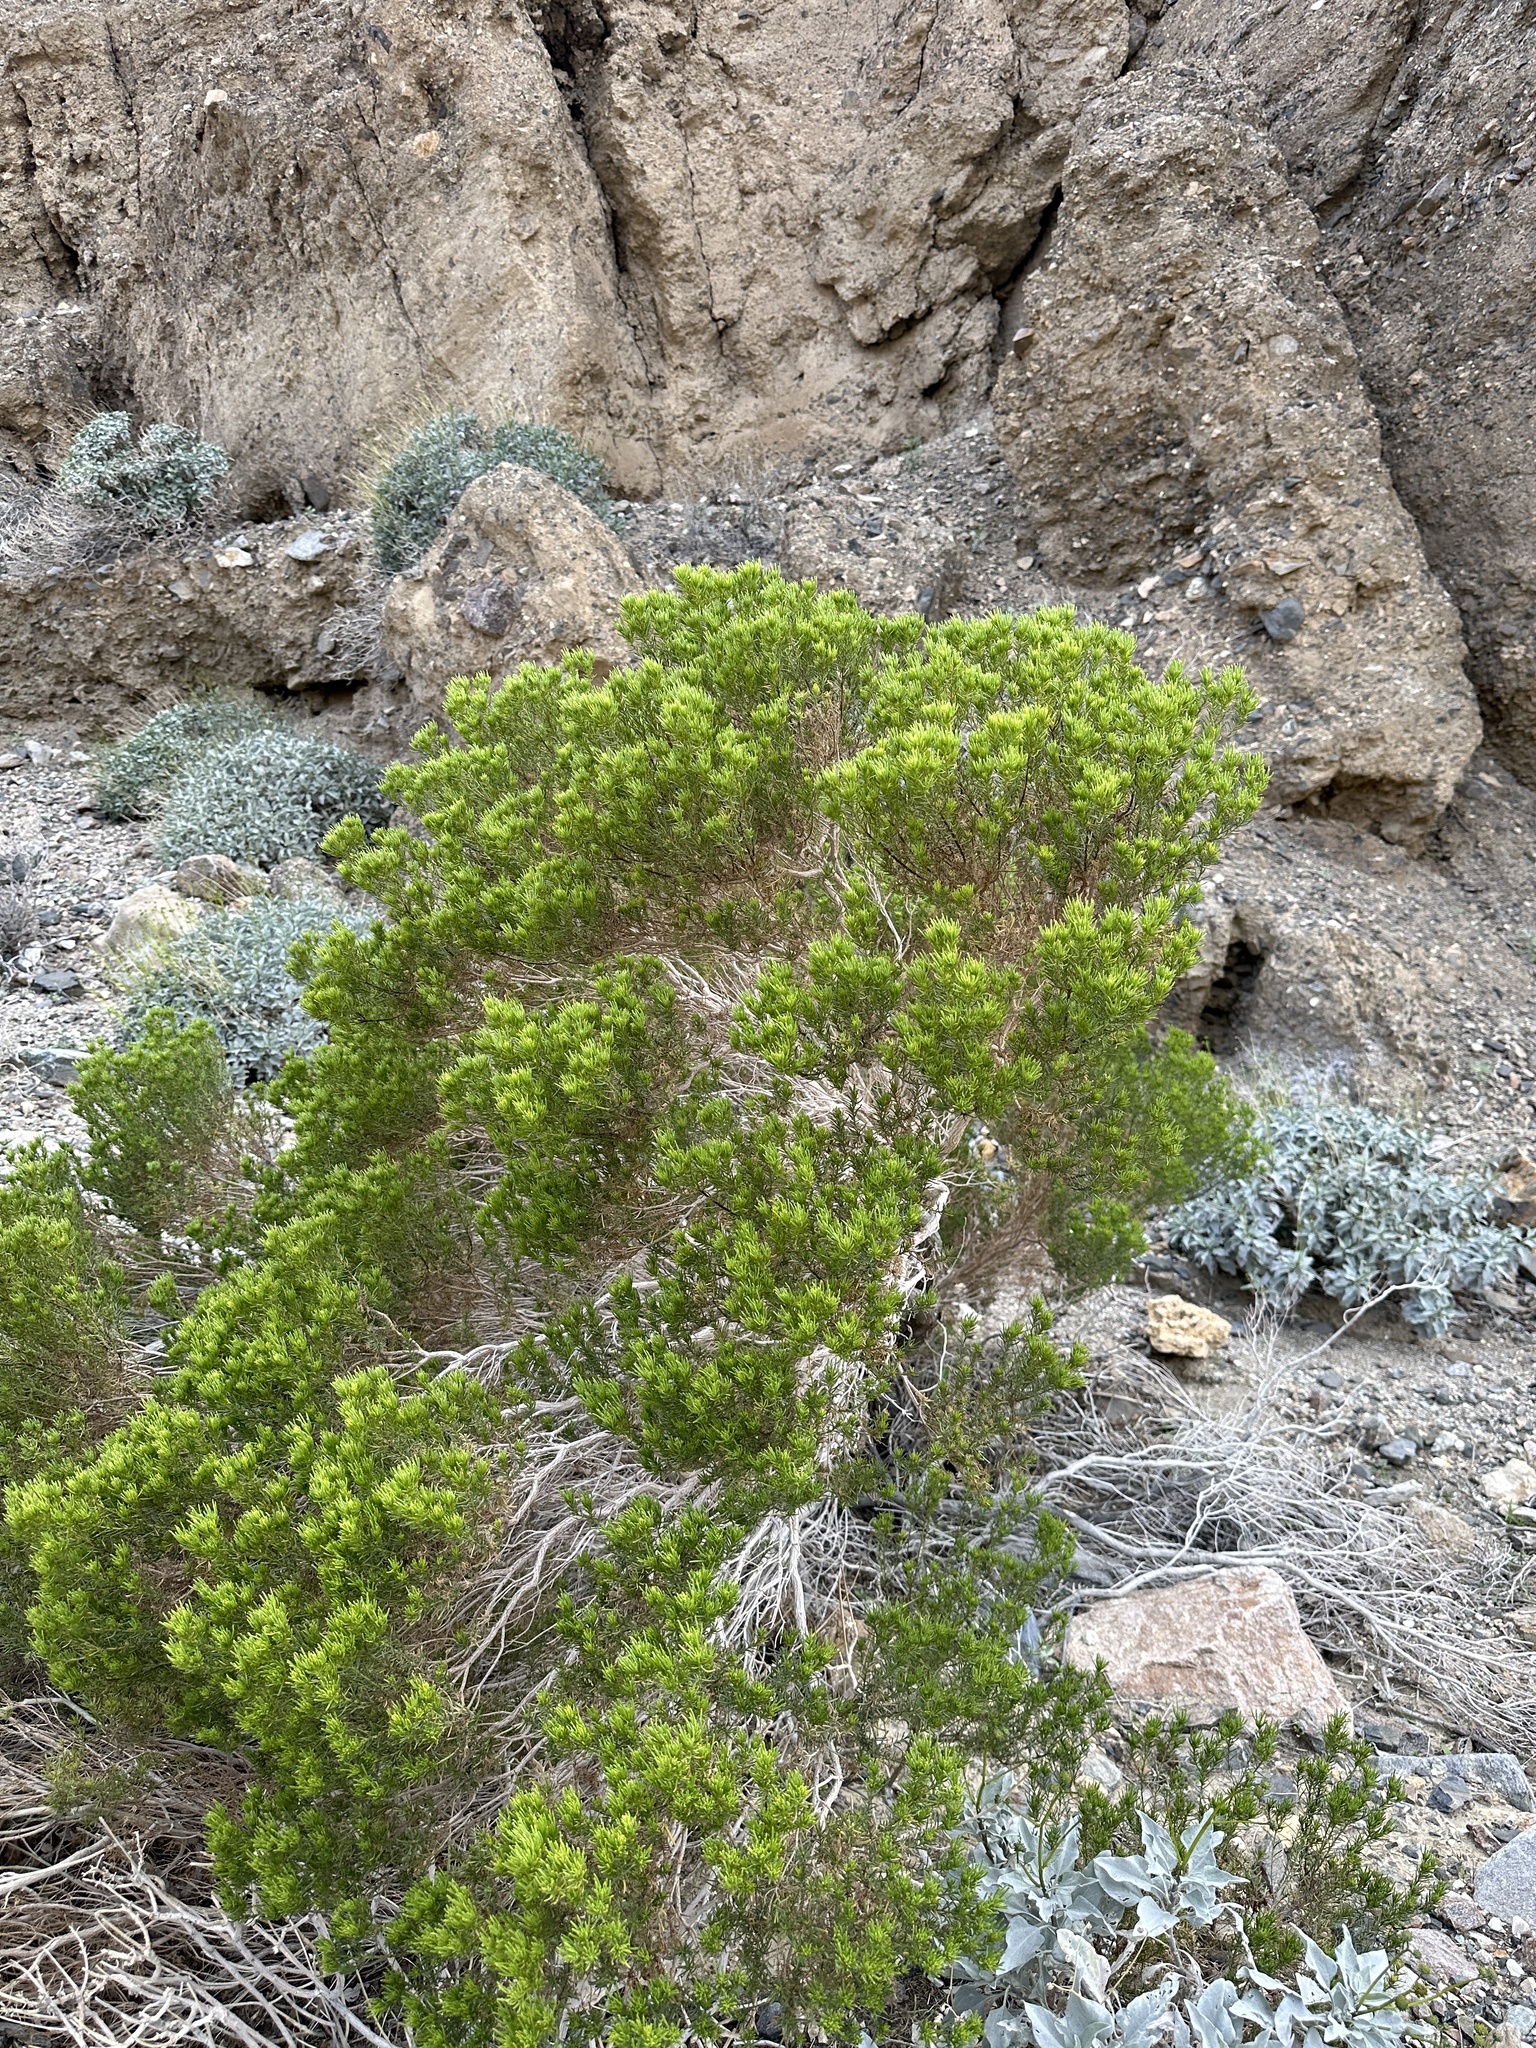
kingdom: Plantae
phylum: Tracheophyta
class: Magnoliopsida
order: Asterales
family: Asteraceae
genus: Peucephyllum
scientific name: Peucephyllum schottii
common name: Pygmy-cedar
